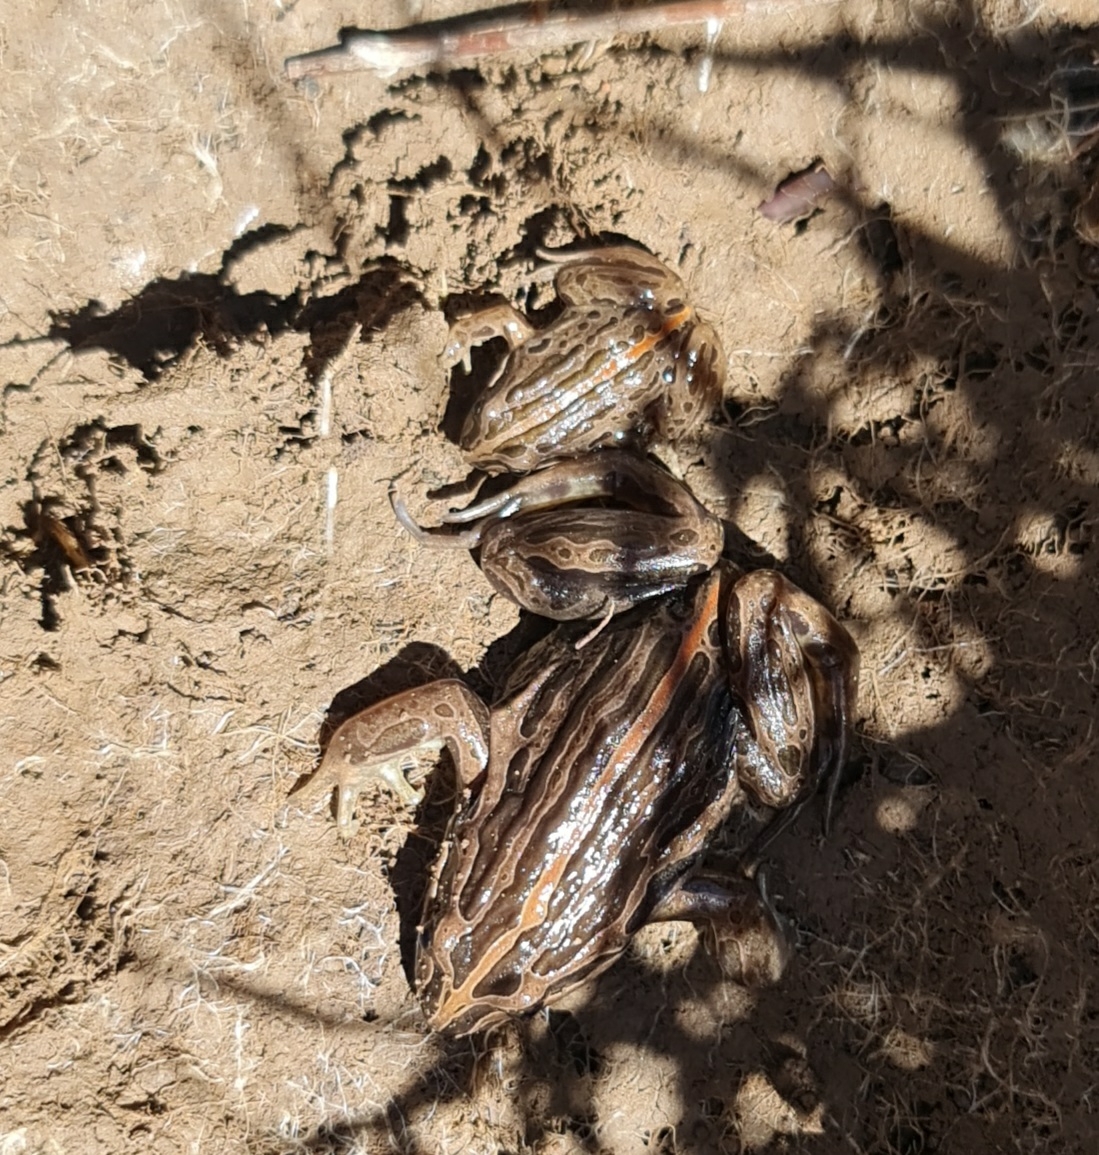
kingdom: Animalia
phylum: Chordata
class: Amphibia
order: Anura
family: Limnodynastidae
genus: Limnodynastes
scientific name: Limnodynastes peronii
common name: Brown frog
